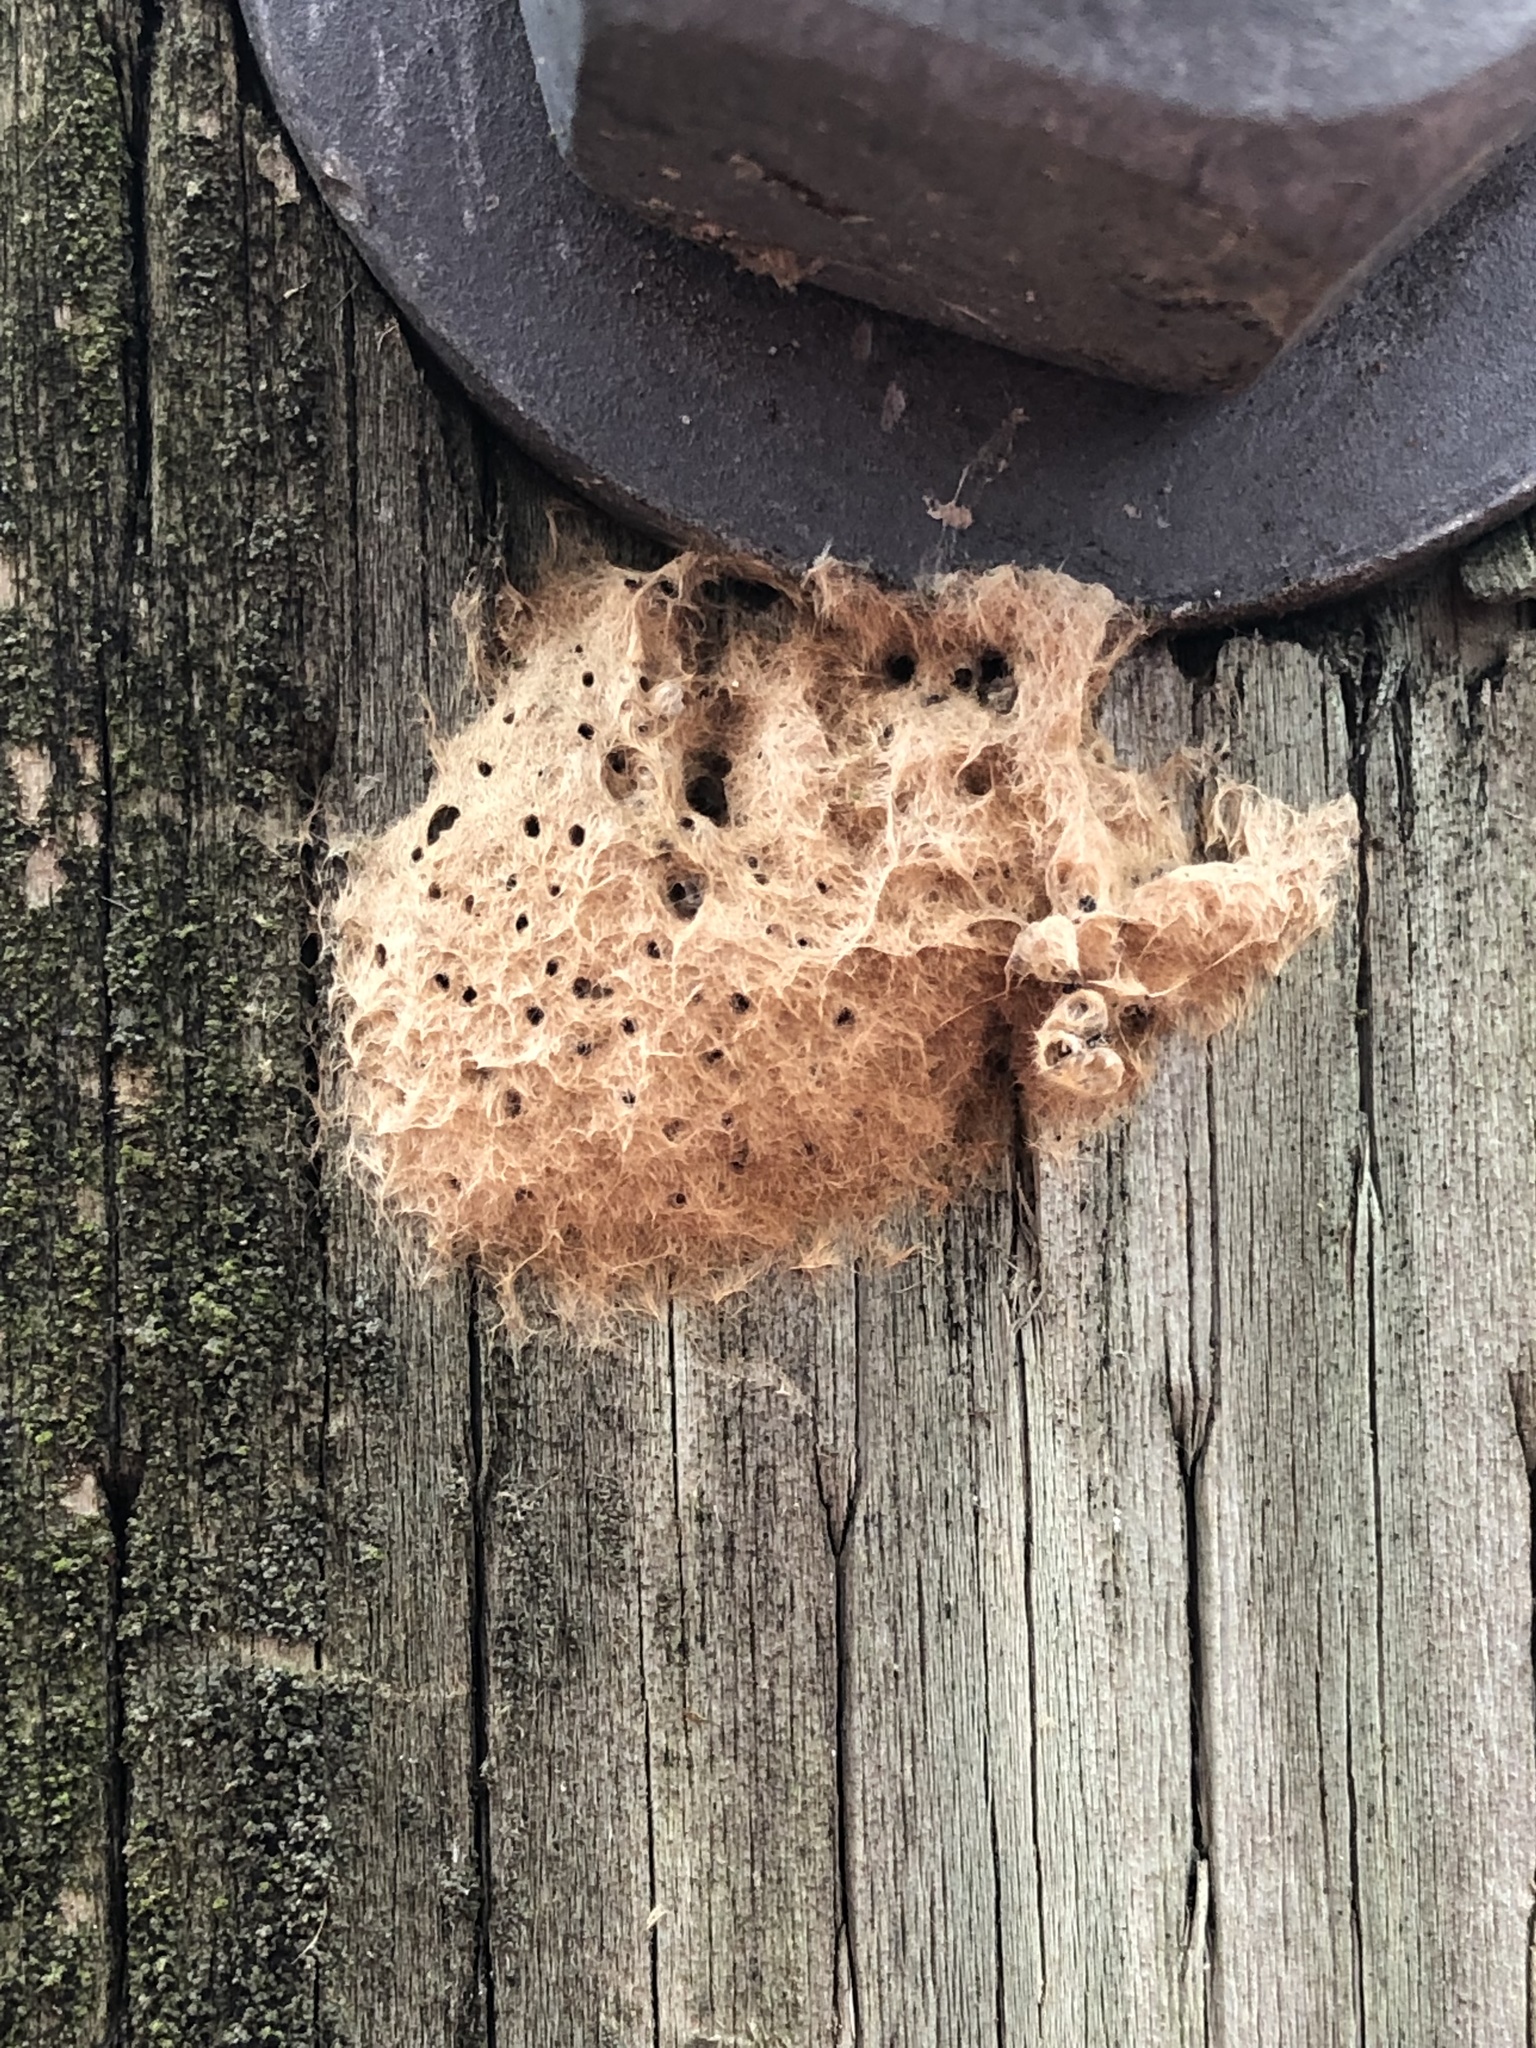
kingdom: Animalia
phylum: Arthropoda
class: Insecta
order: Lepidoptera
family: Erebidae
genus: Lymantria
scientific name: Lymantria dispar
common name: Gypsy moth
